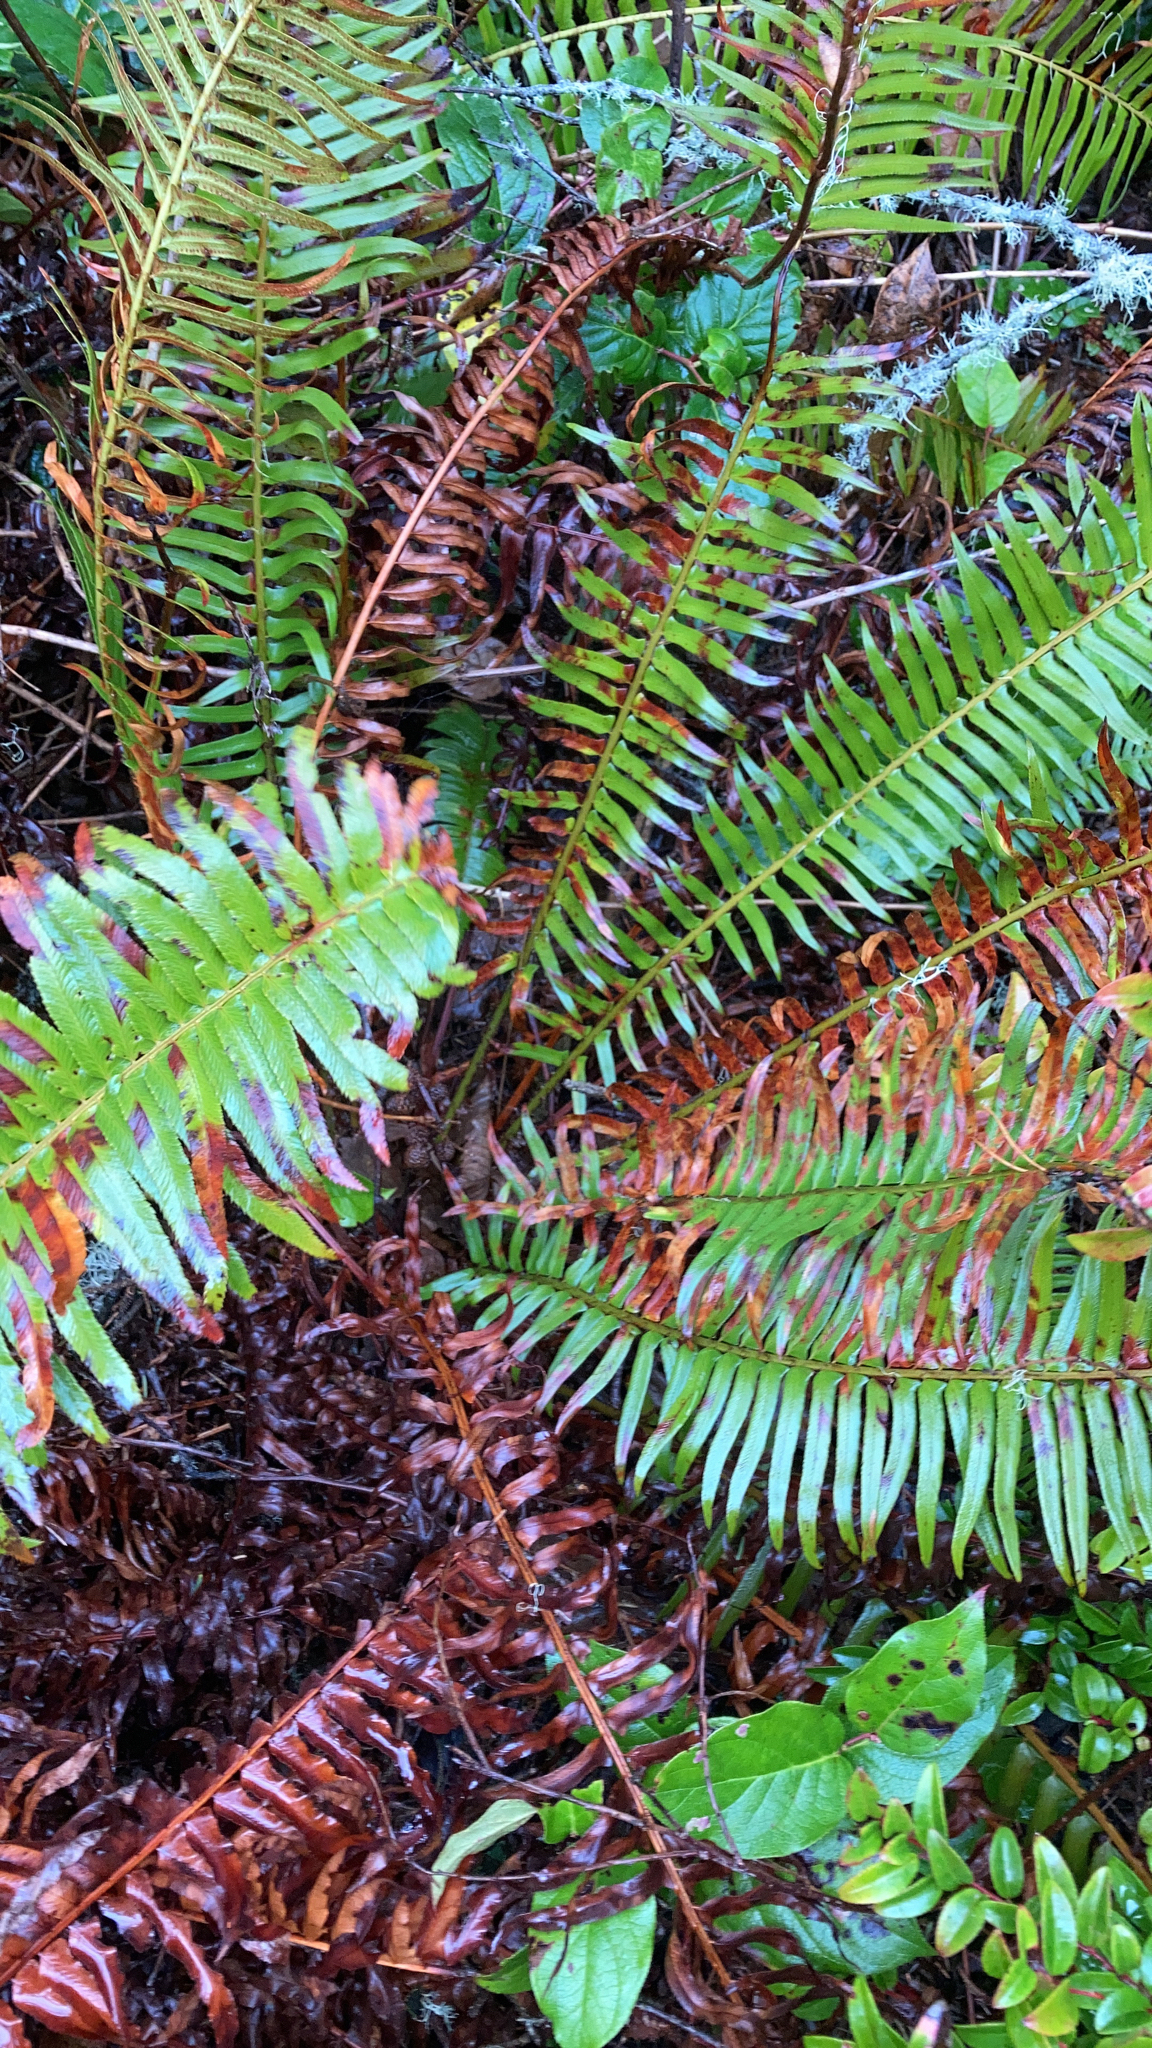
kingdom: Plantae
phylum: Tracheophyta
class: Polypodiopsida
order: Polypodiales
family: Dryopteridaceae
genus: Polystichum
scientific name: Polystichum munitum
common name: Western sword-fern
